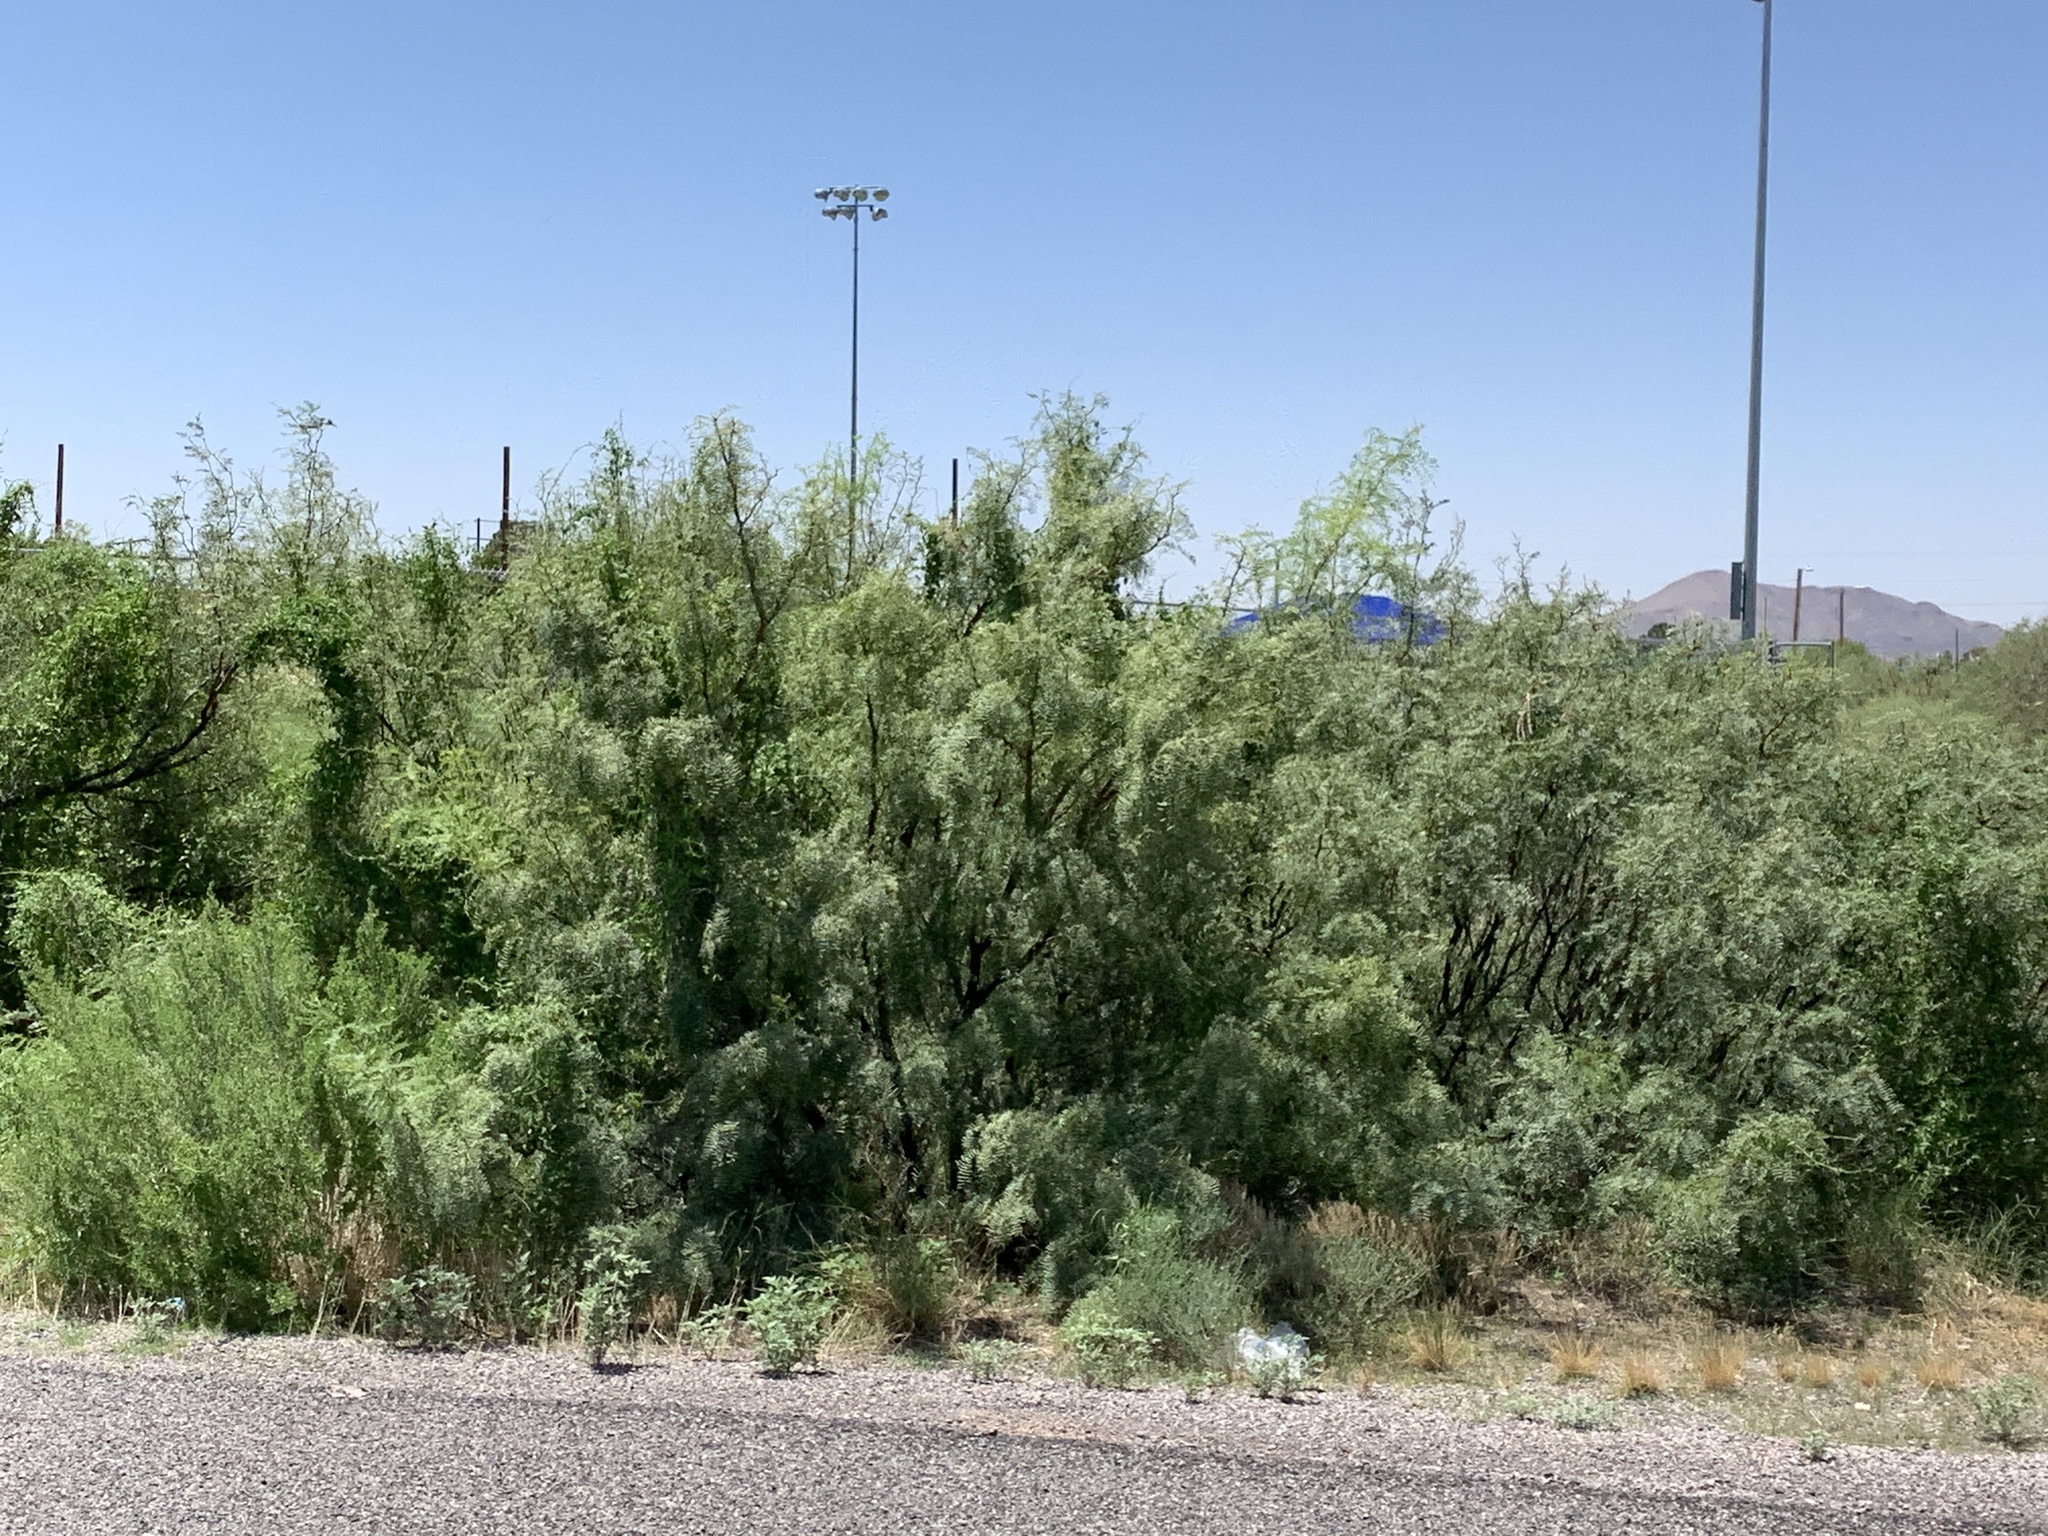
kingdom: Plantae
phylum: Tracheophyta
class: Magnoliopsida
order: Fabales
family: Fabaceae
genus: Prosopis
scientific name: Prosopis glandulosa
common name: Honey mesquite
